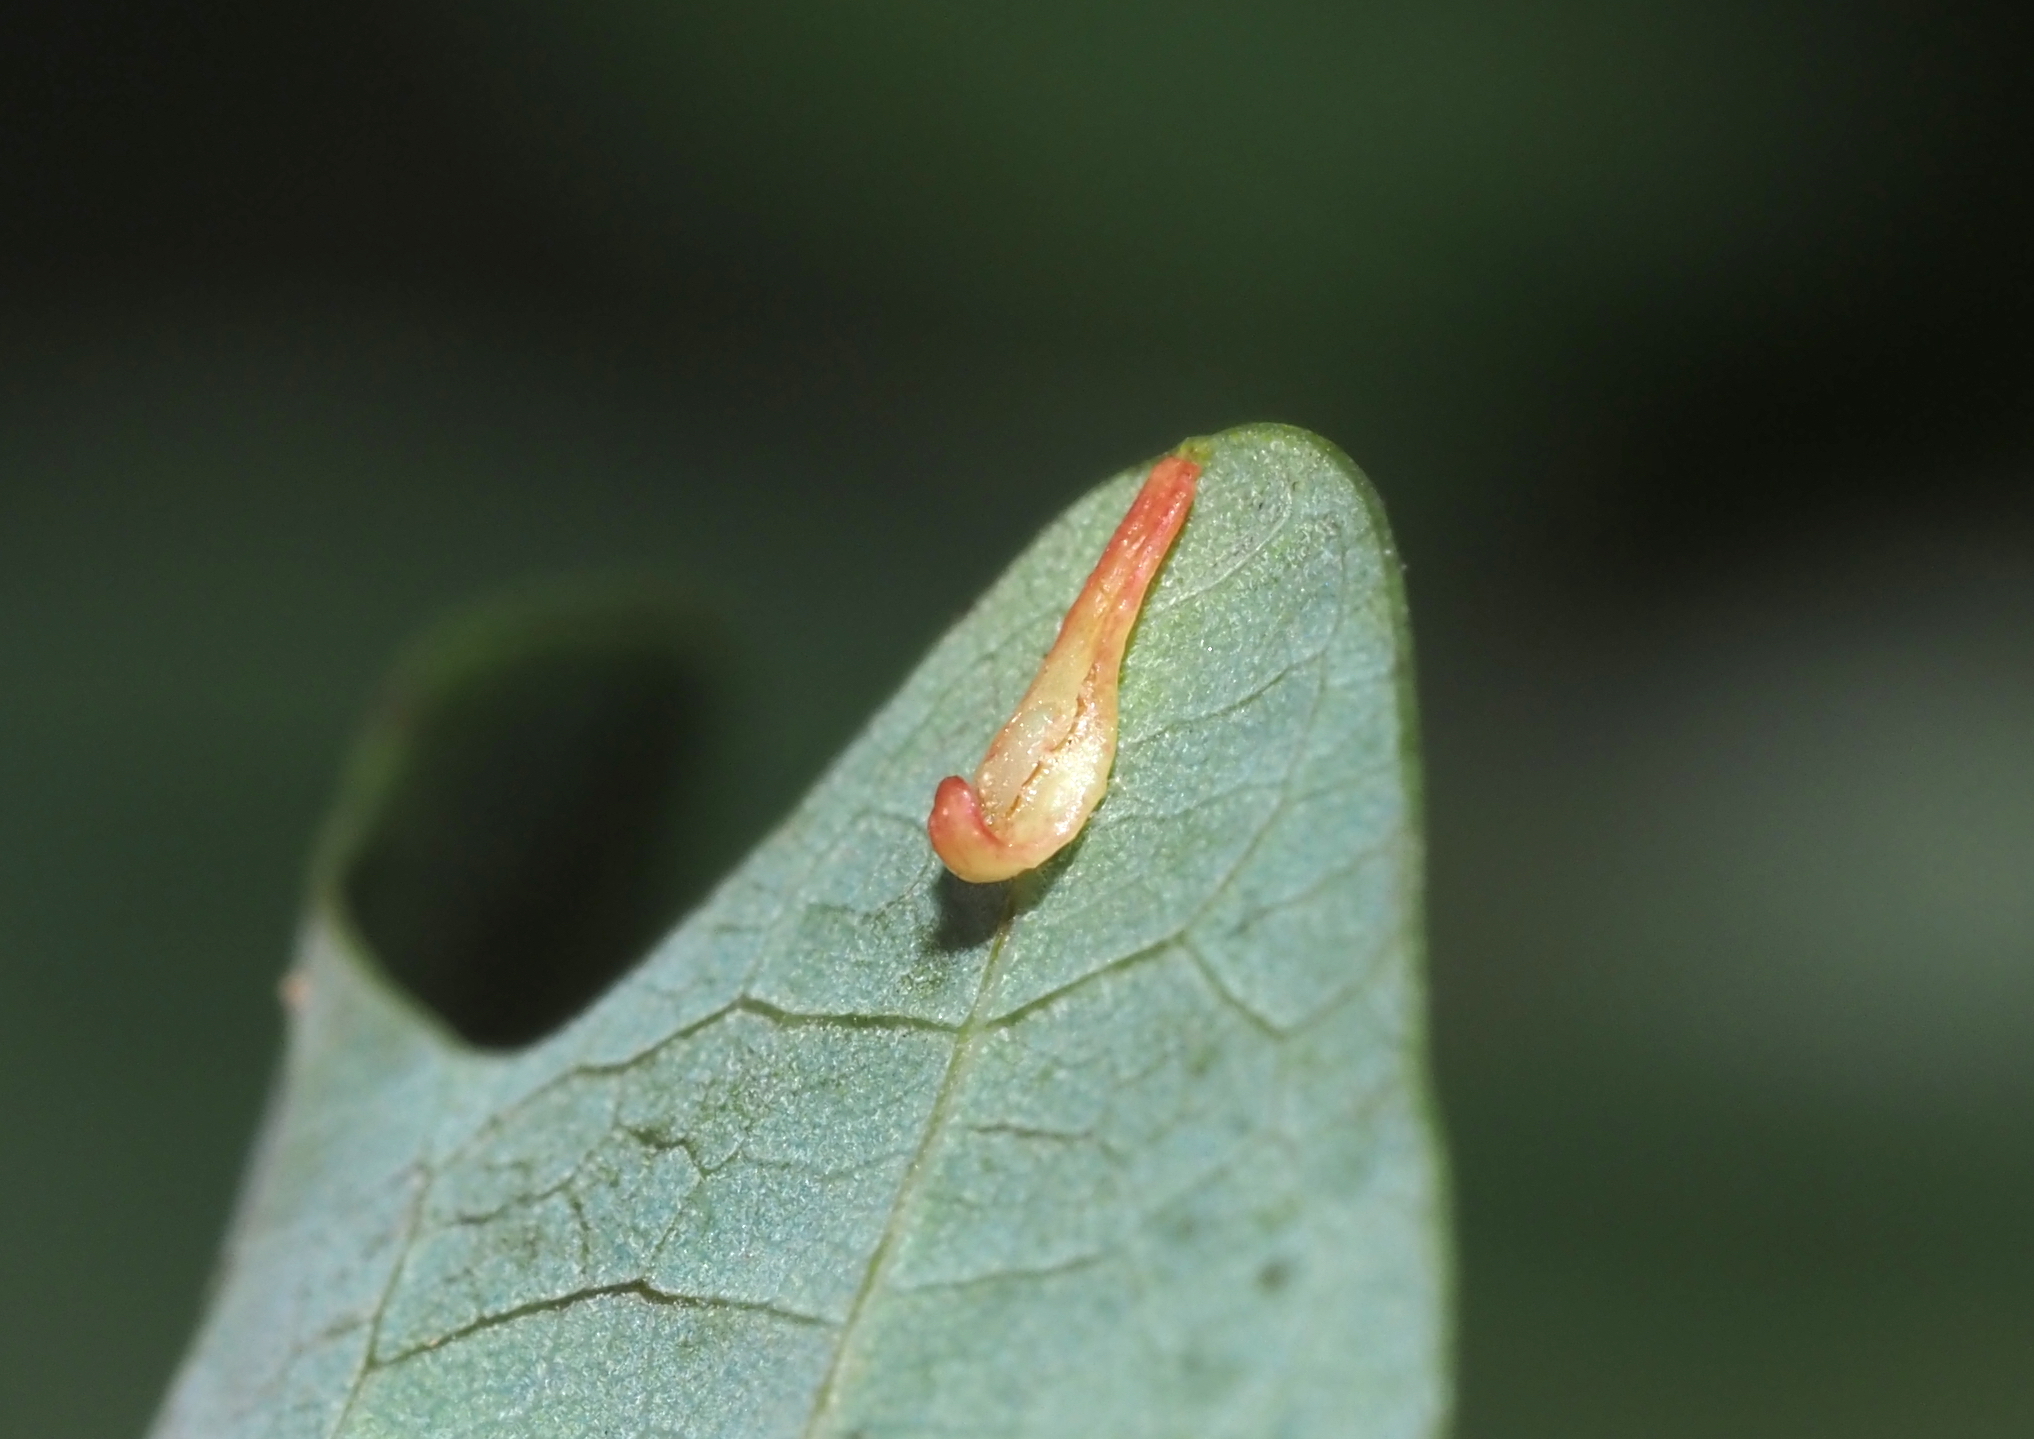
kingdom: Animalia
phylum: Arthropoda
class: Insecta
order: Hymenoptera
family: Cynipidae
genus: Phylloteras
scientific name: Phylloteras
